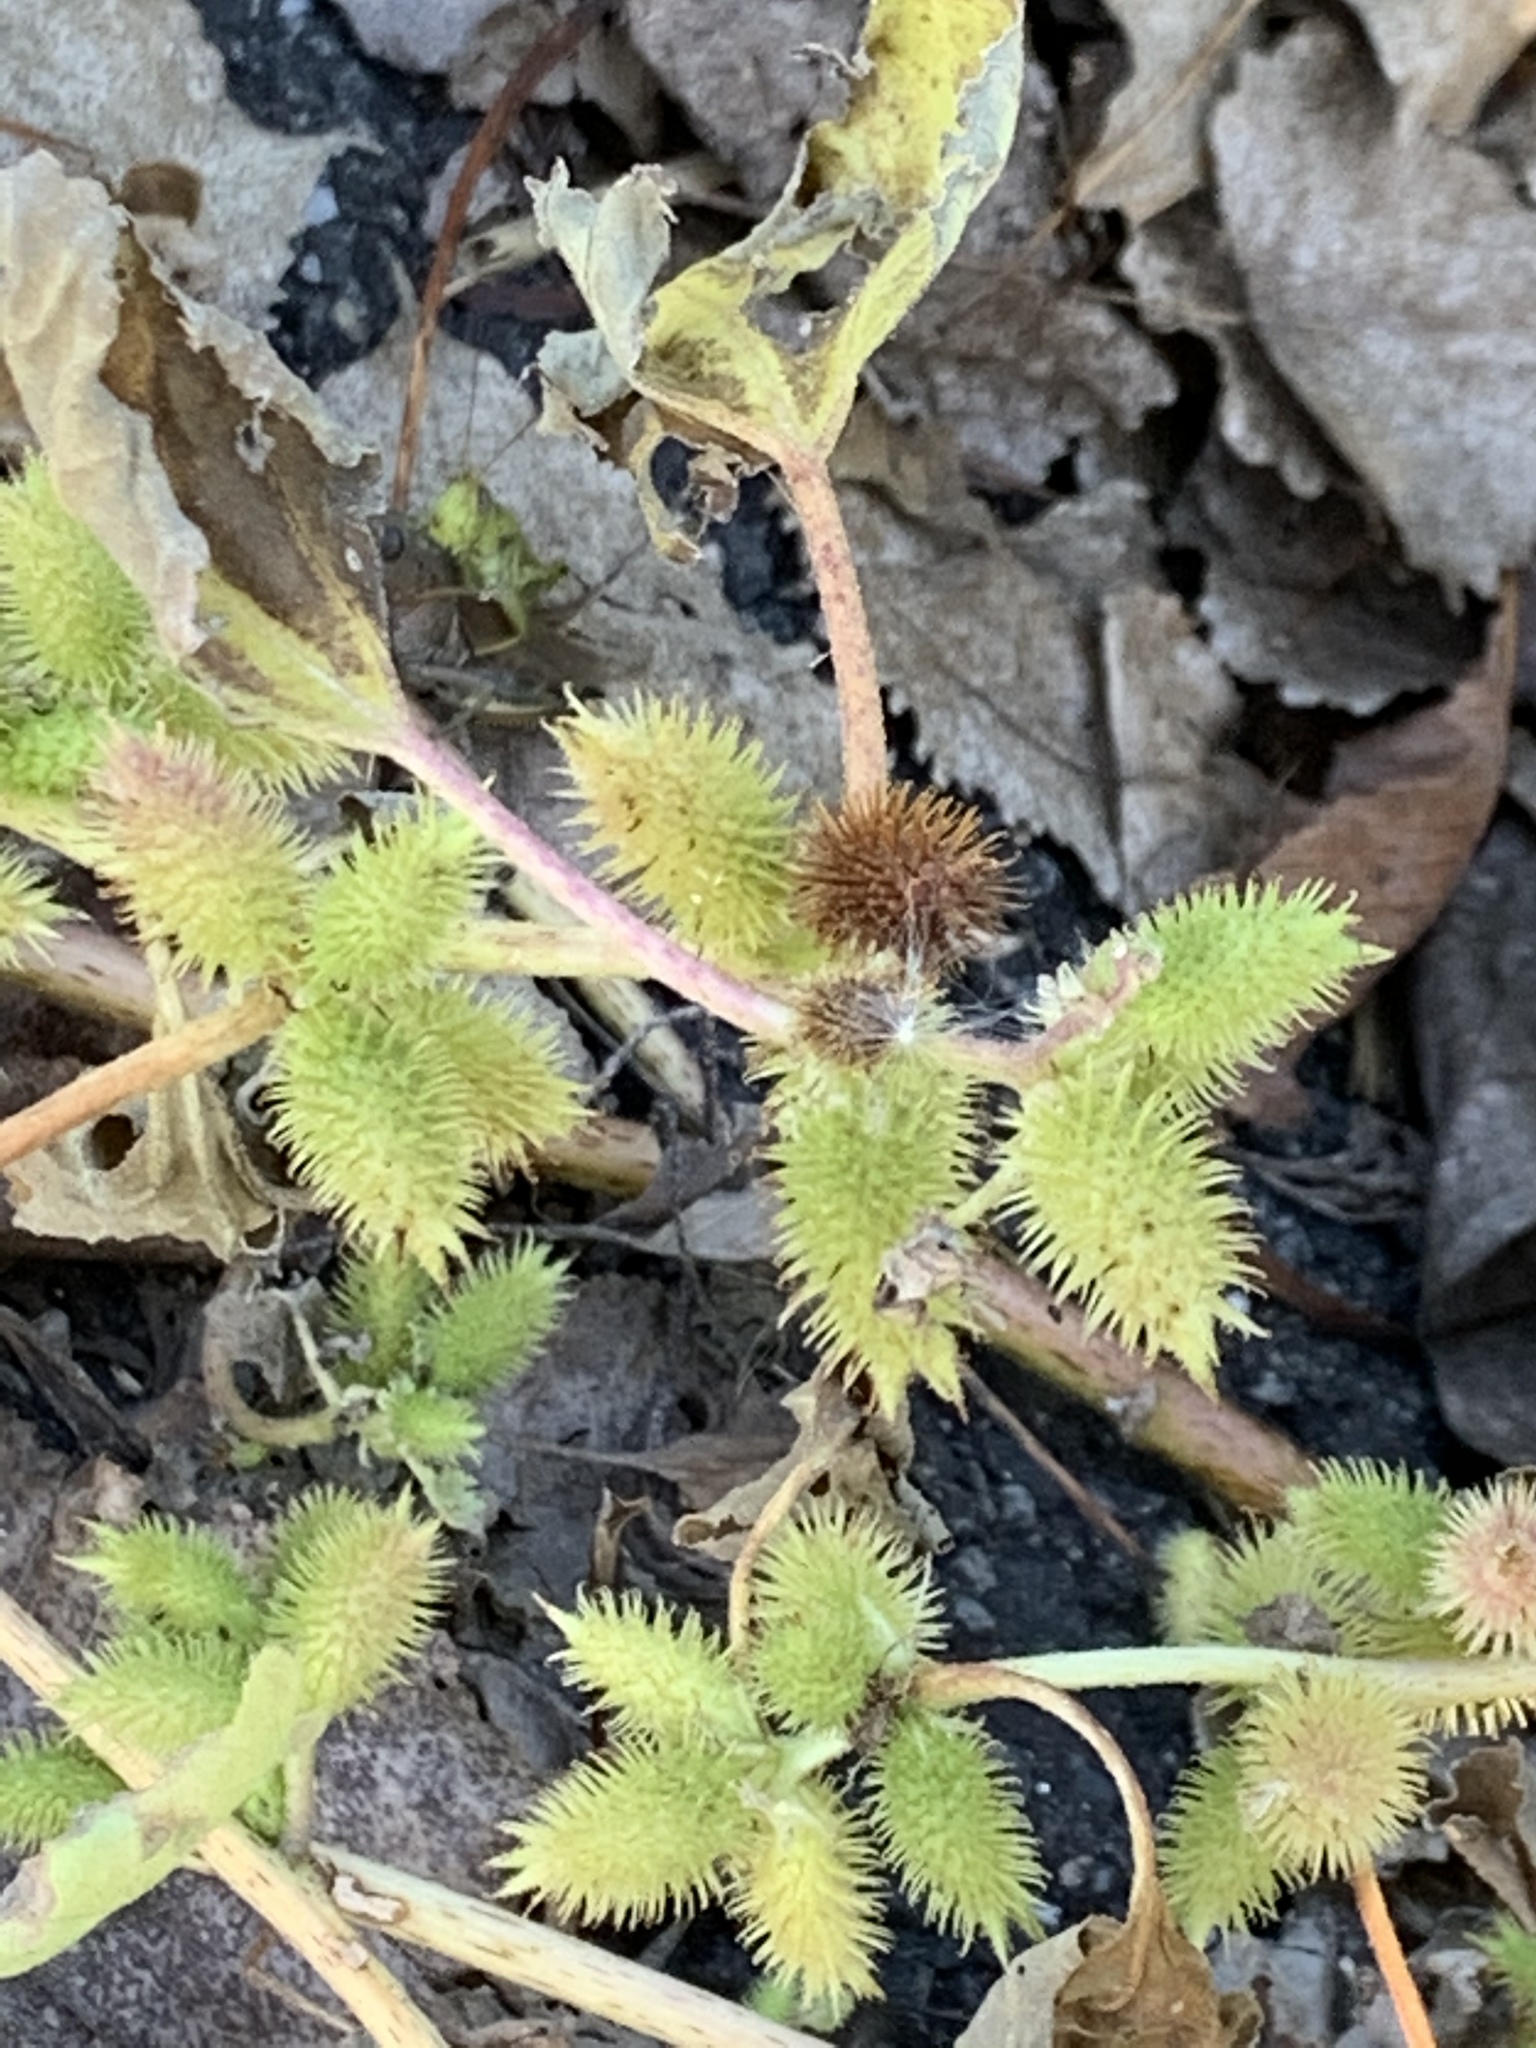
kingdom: Plantae
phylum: Tracheophyta
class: Magnoliopsida
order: Asterales
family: Asteraceae
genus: Xanthium
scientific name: Xanthium strumarium
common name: Rough cocklebur
